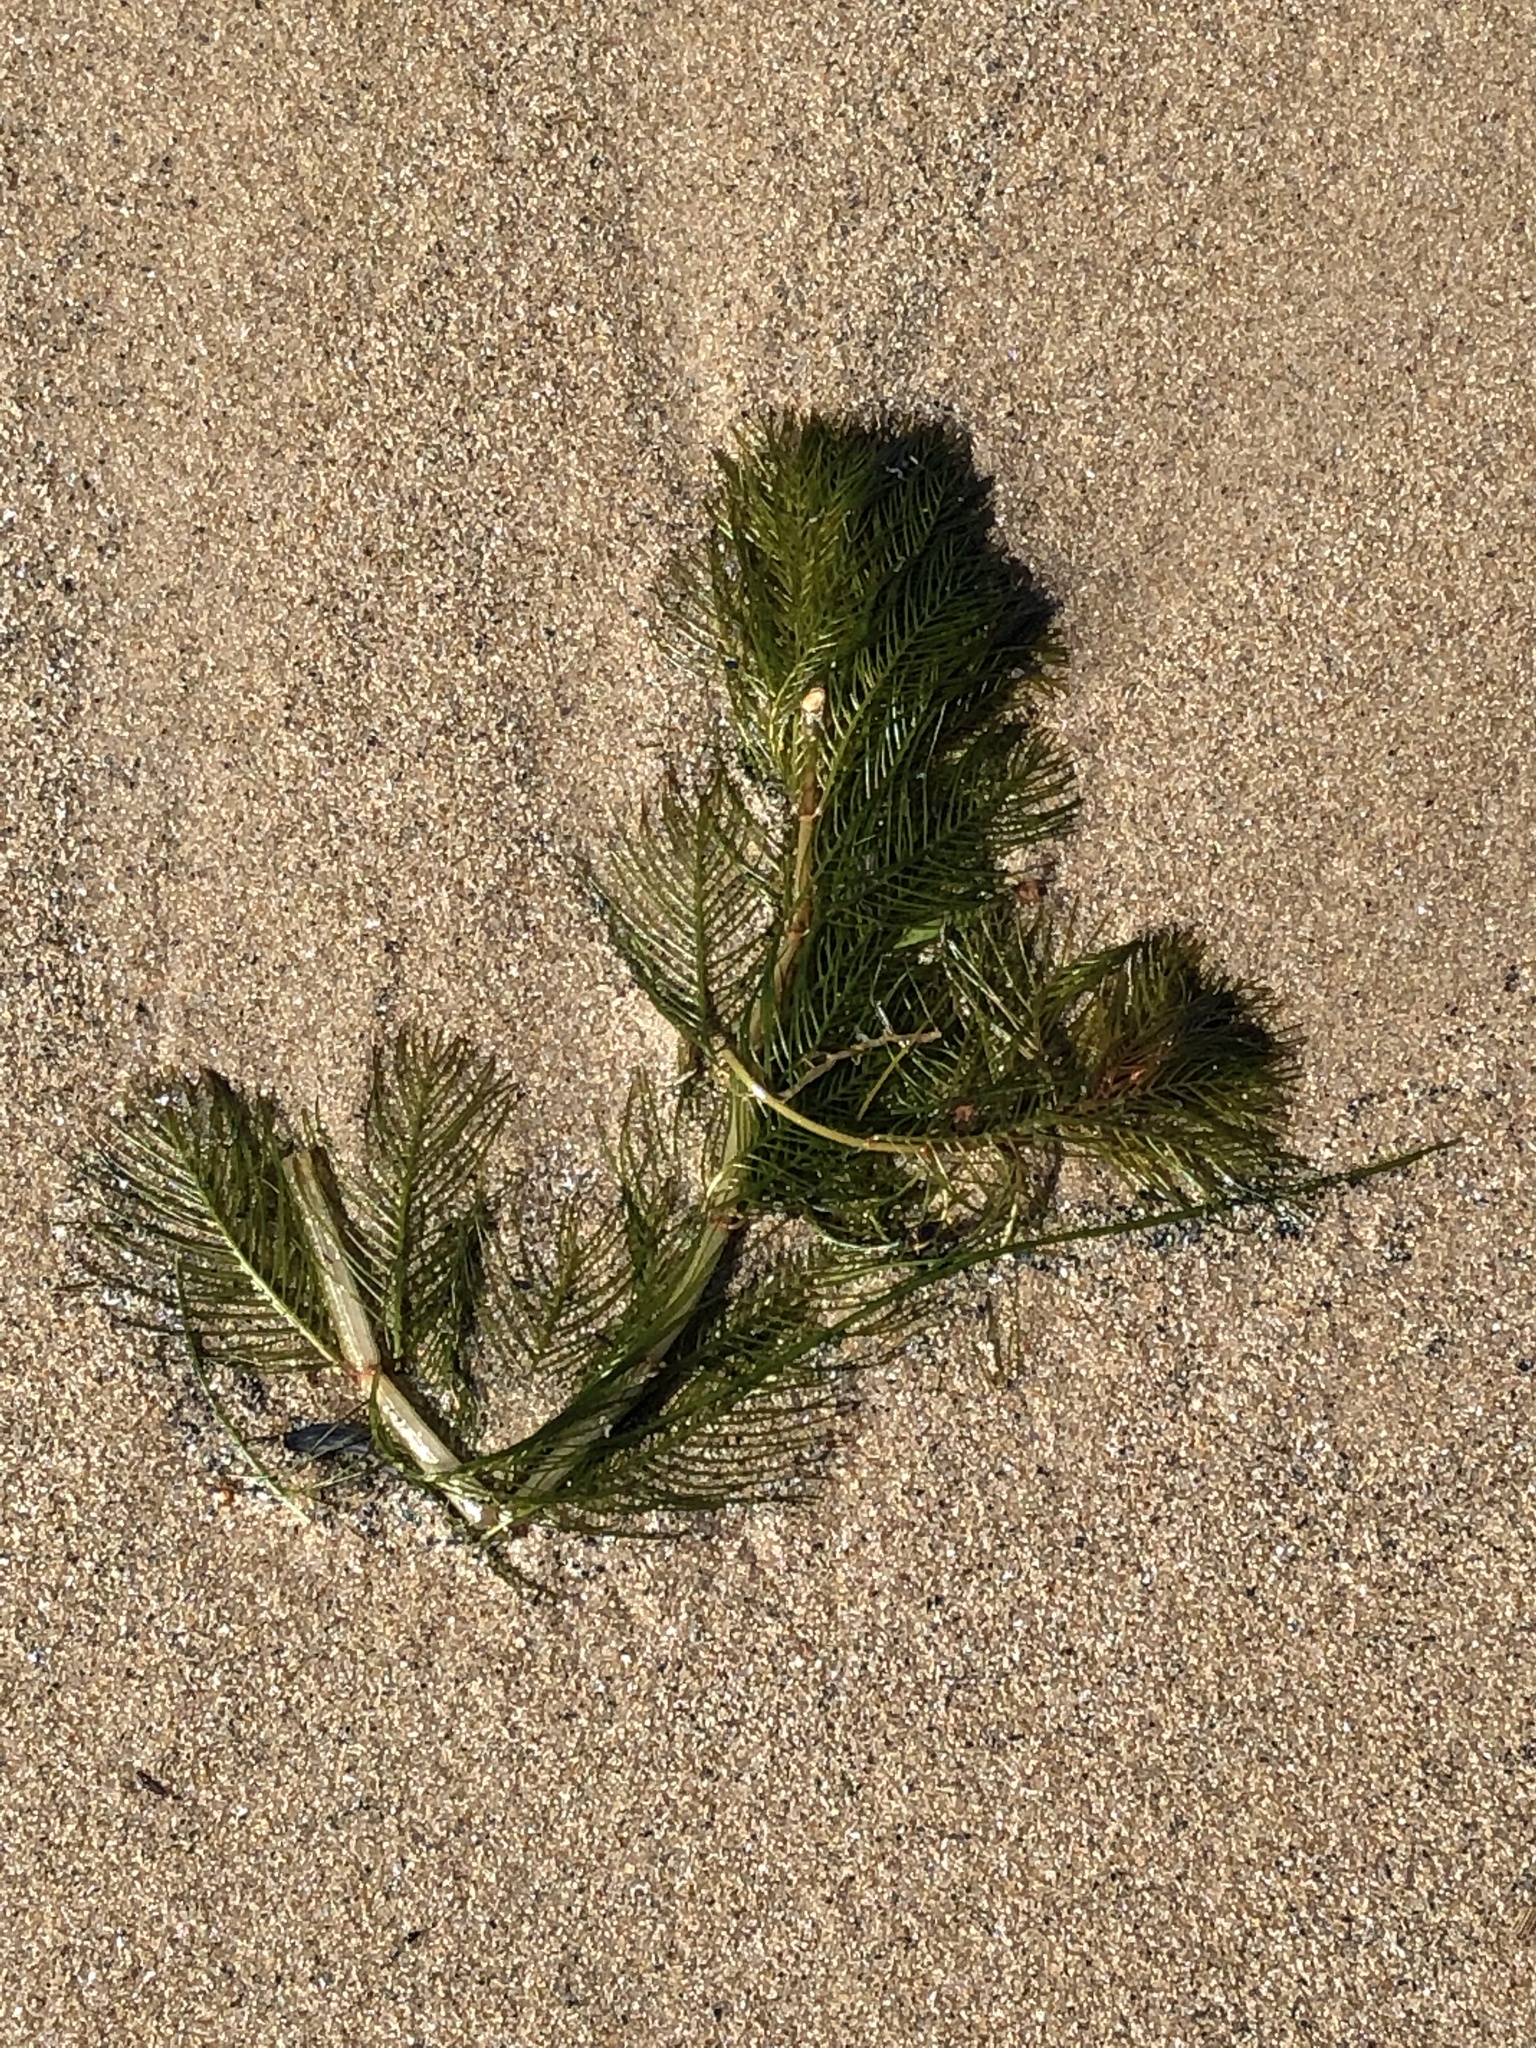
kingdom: Plantae
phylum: Tracheophyta
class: Magnoliopsida
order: Saxifragales
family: Haloragaceae
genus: Myriophyllum
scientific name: Myriophyllum spicatum
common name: Spiked water-milfoil
